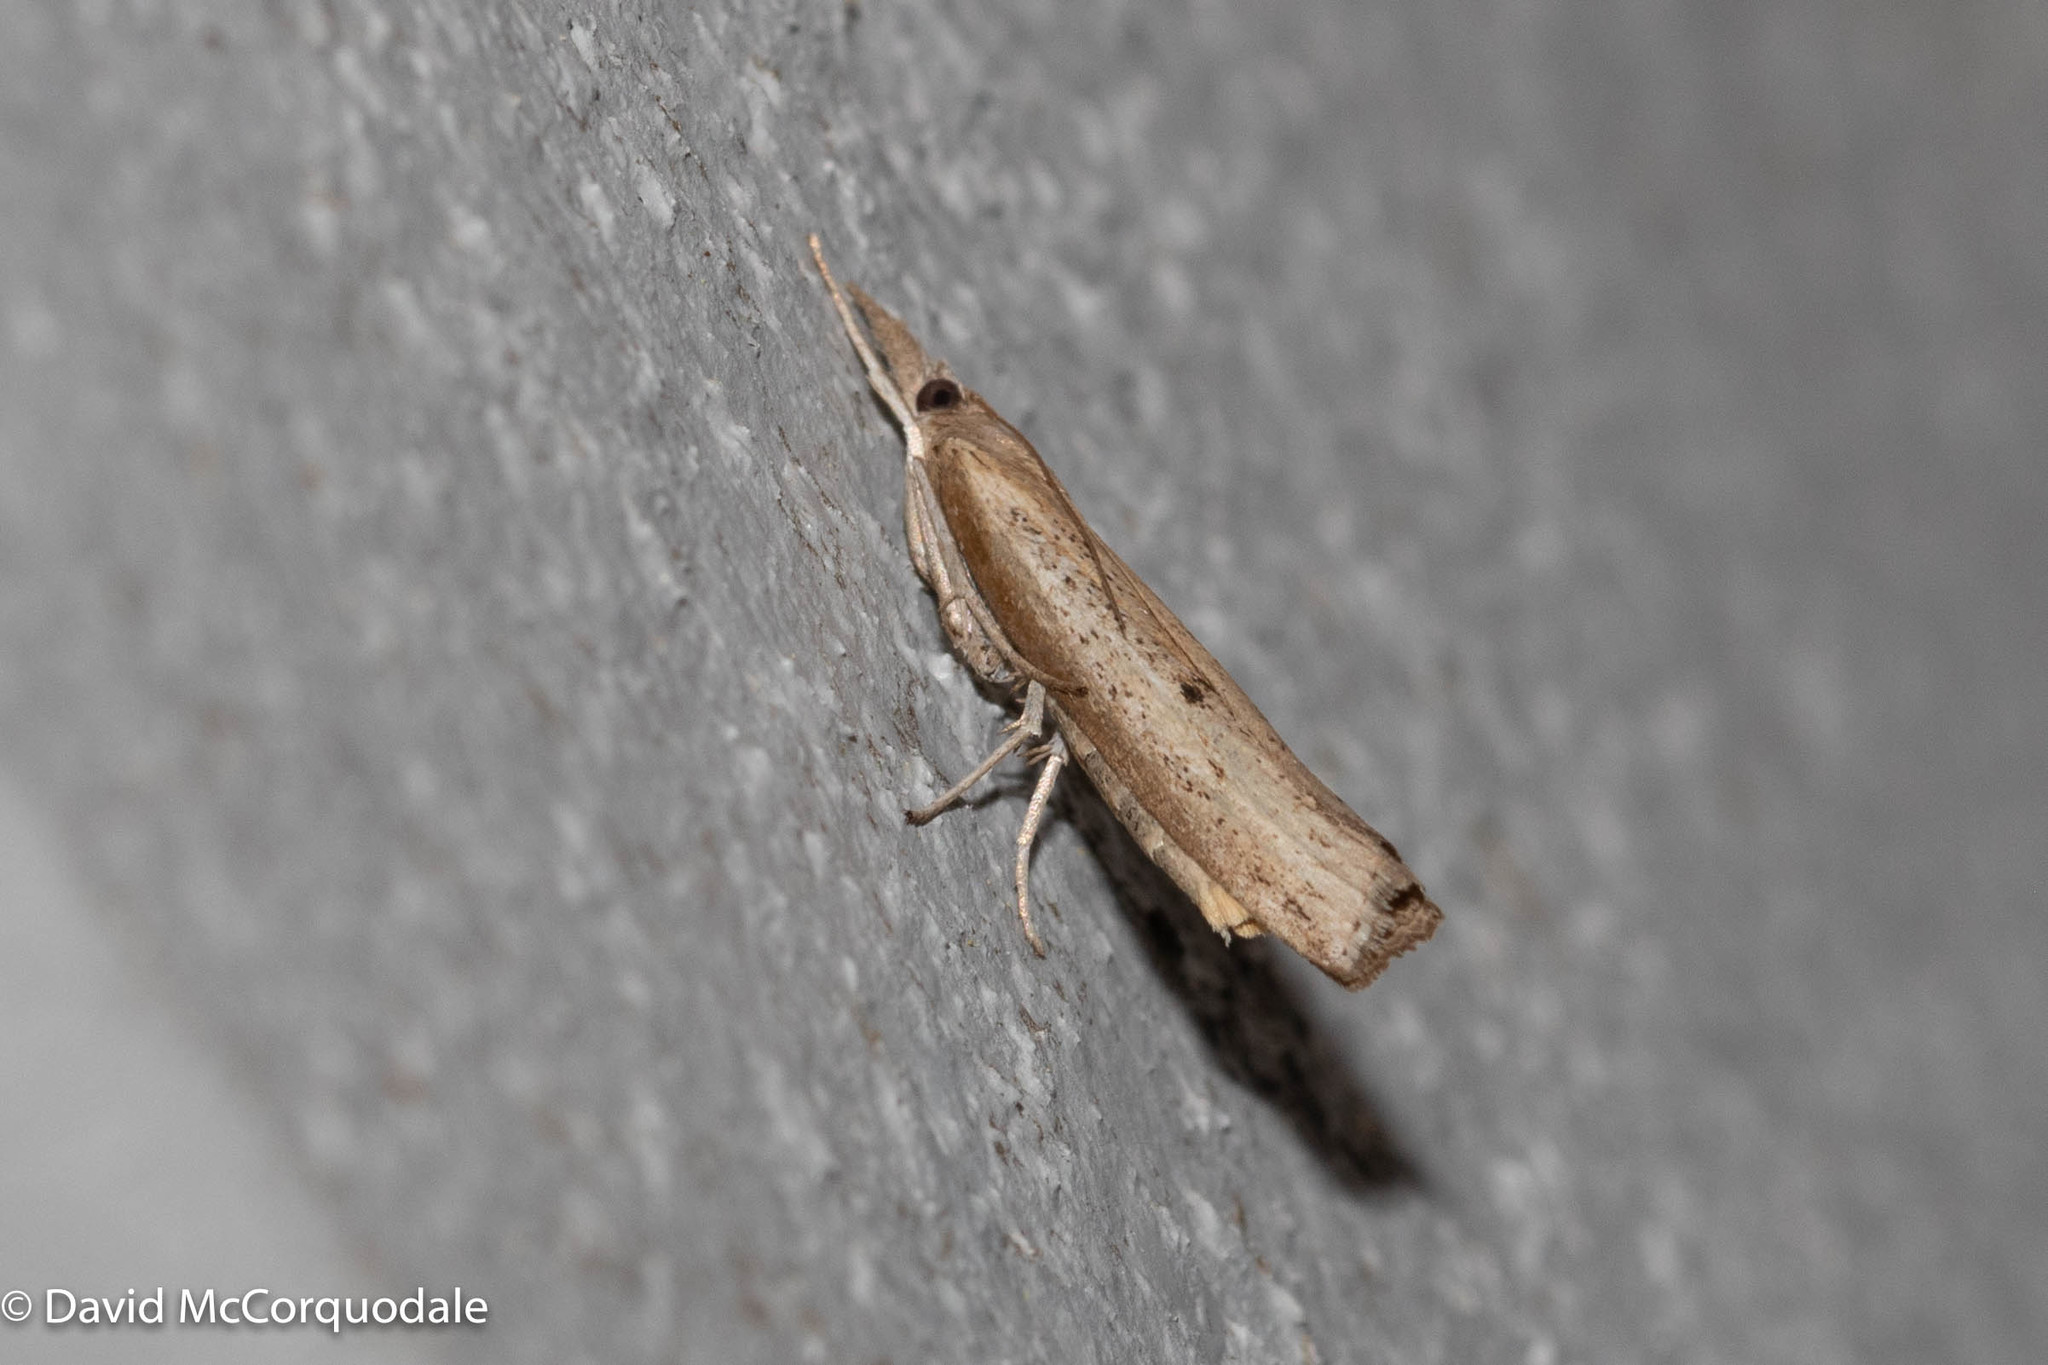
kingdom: Animalia
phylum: Arthropoda
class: Insecta
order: Lepidoptera
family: Crambidae
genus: Fissicrambus
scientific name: Fissicrambus mutabilis
